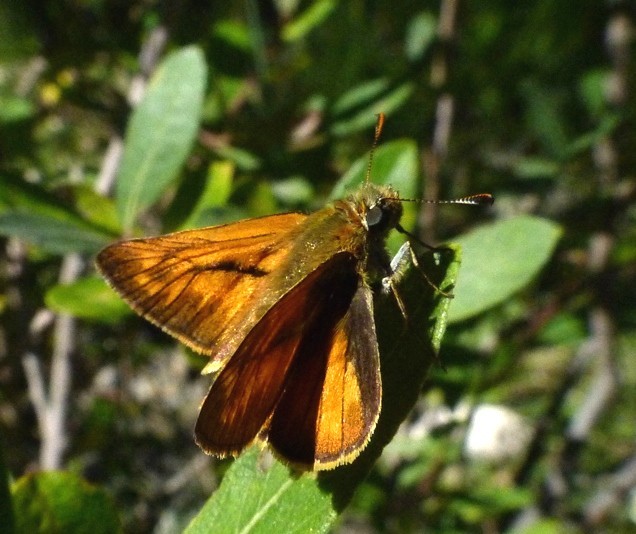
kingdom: Animalia
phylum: Arthropoda
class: Insecta
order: Lepidoptera
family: Hesperiidae
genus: Ochlodes
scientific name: Ochlodes venata
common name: Large skipper
